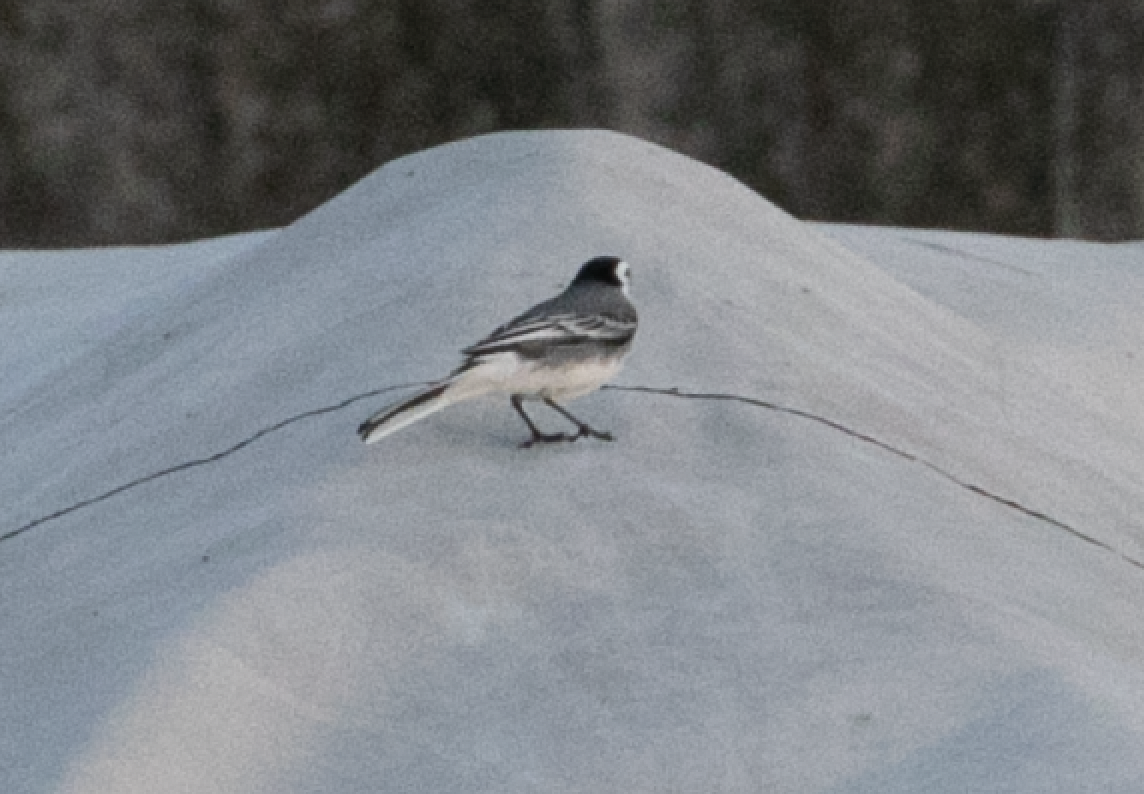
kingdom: Animalia
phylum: Chordata
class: Aves
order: Passeriformes
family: Motacillidae
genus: Motacilla
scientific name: Motacilla alba
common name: White wagtail
